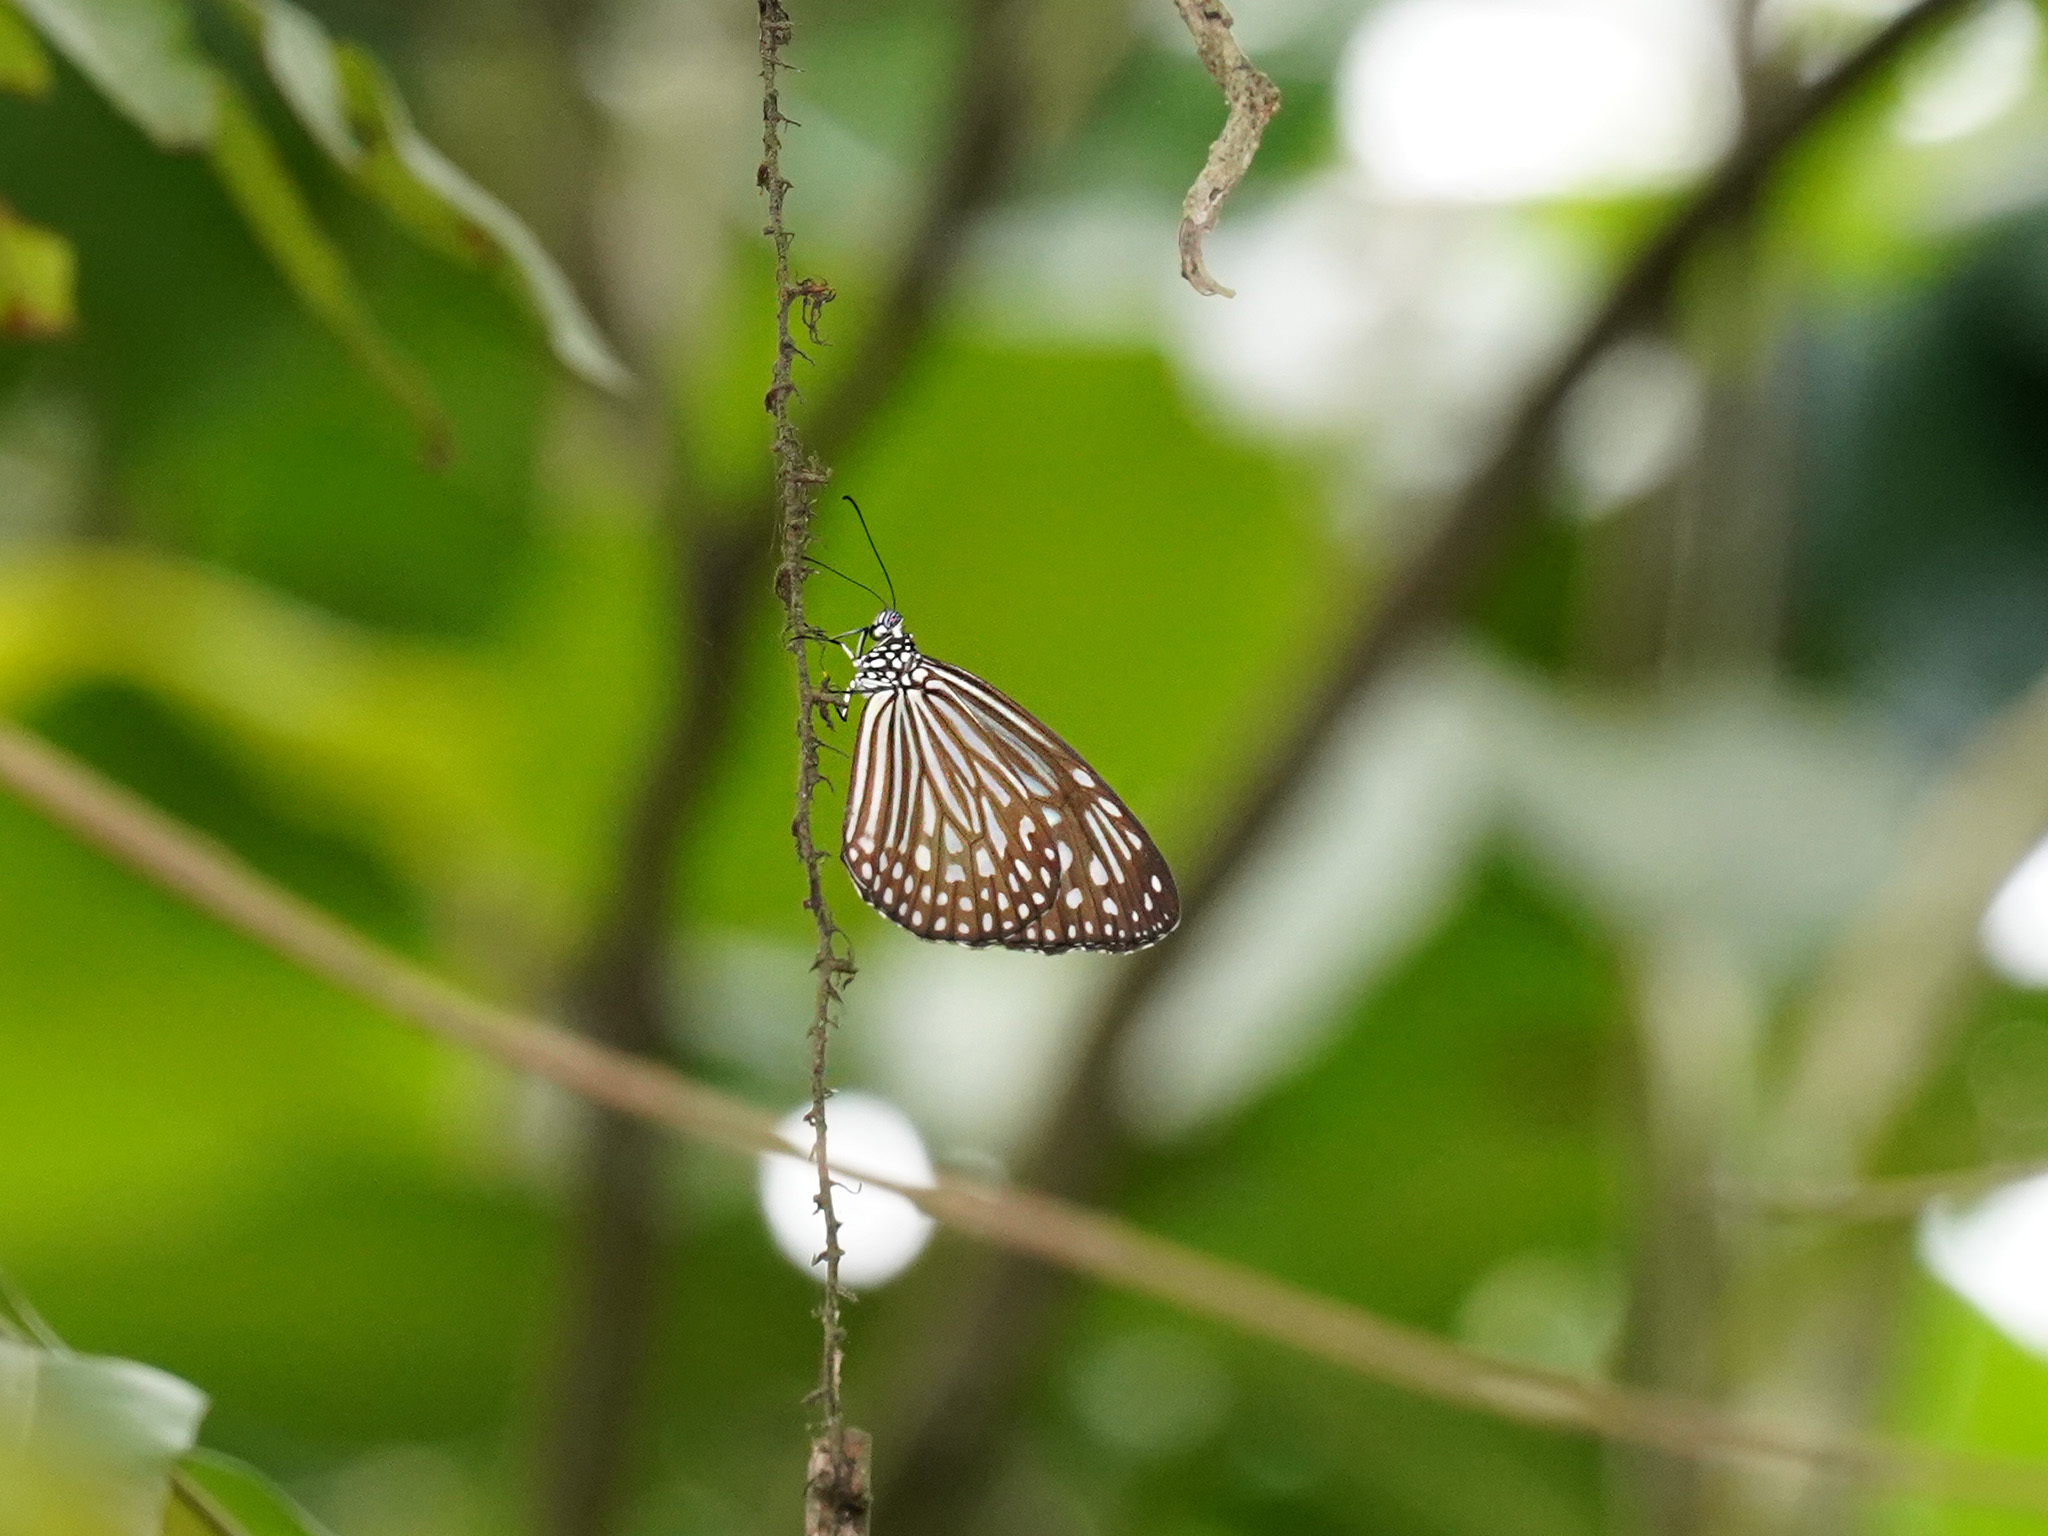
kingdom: Animalia
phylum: Arthropoda
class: Insecta
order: Lepidoptera
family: Nymphalidae
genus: Parantica
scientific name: Parantica agleoides
